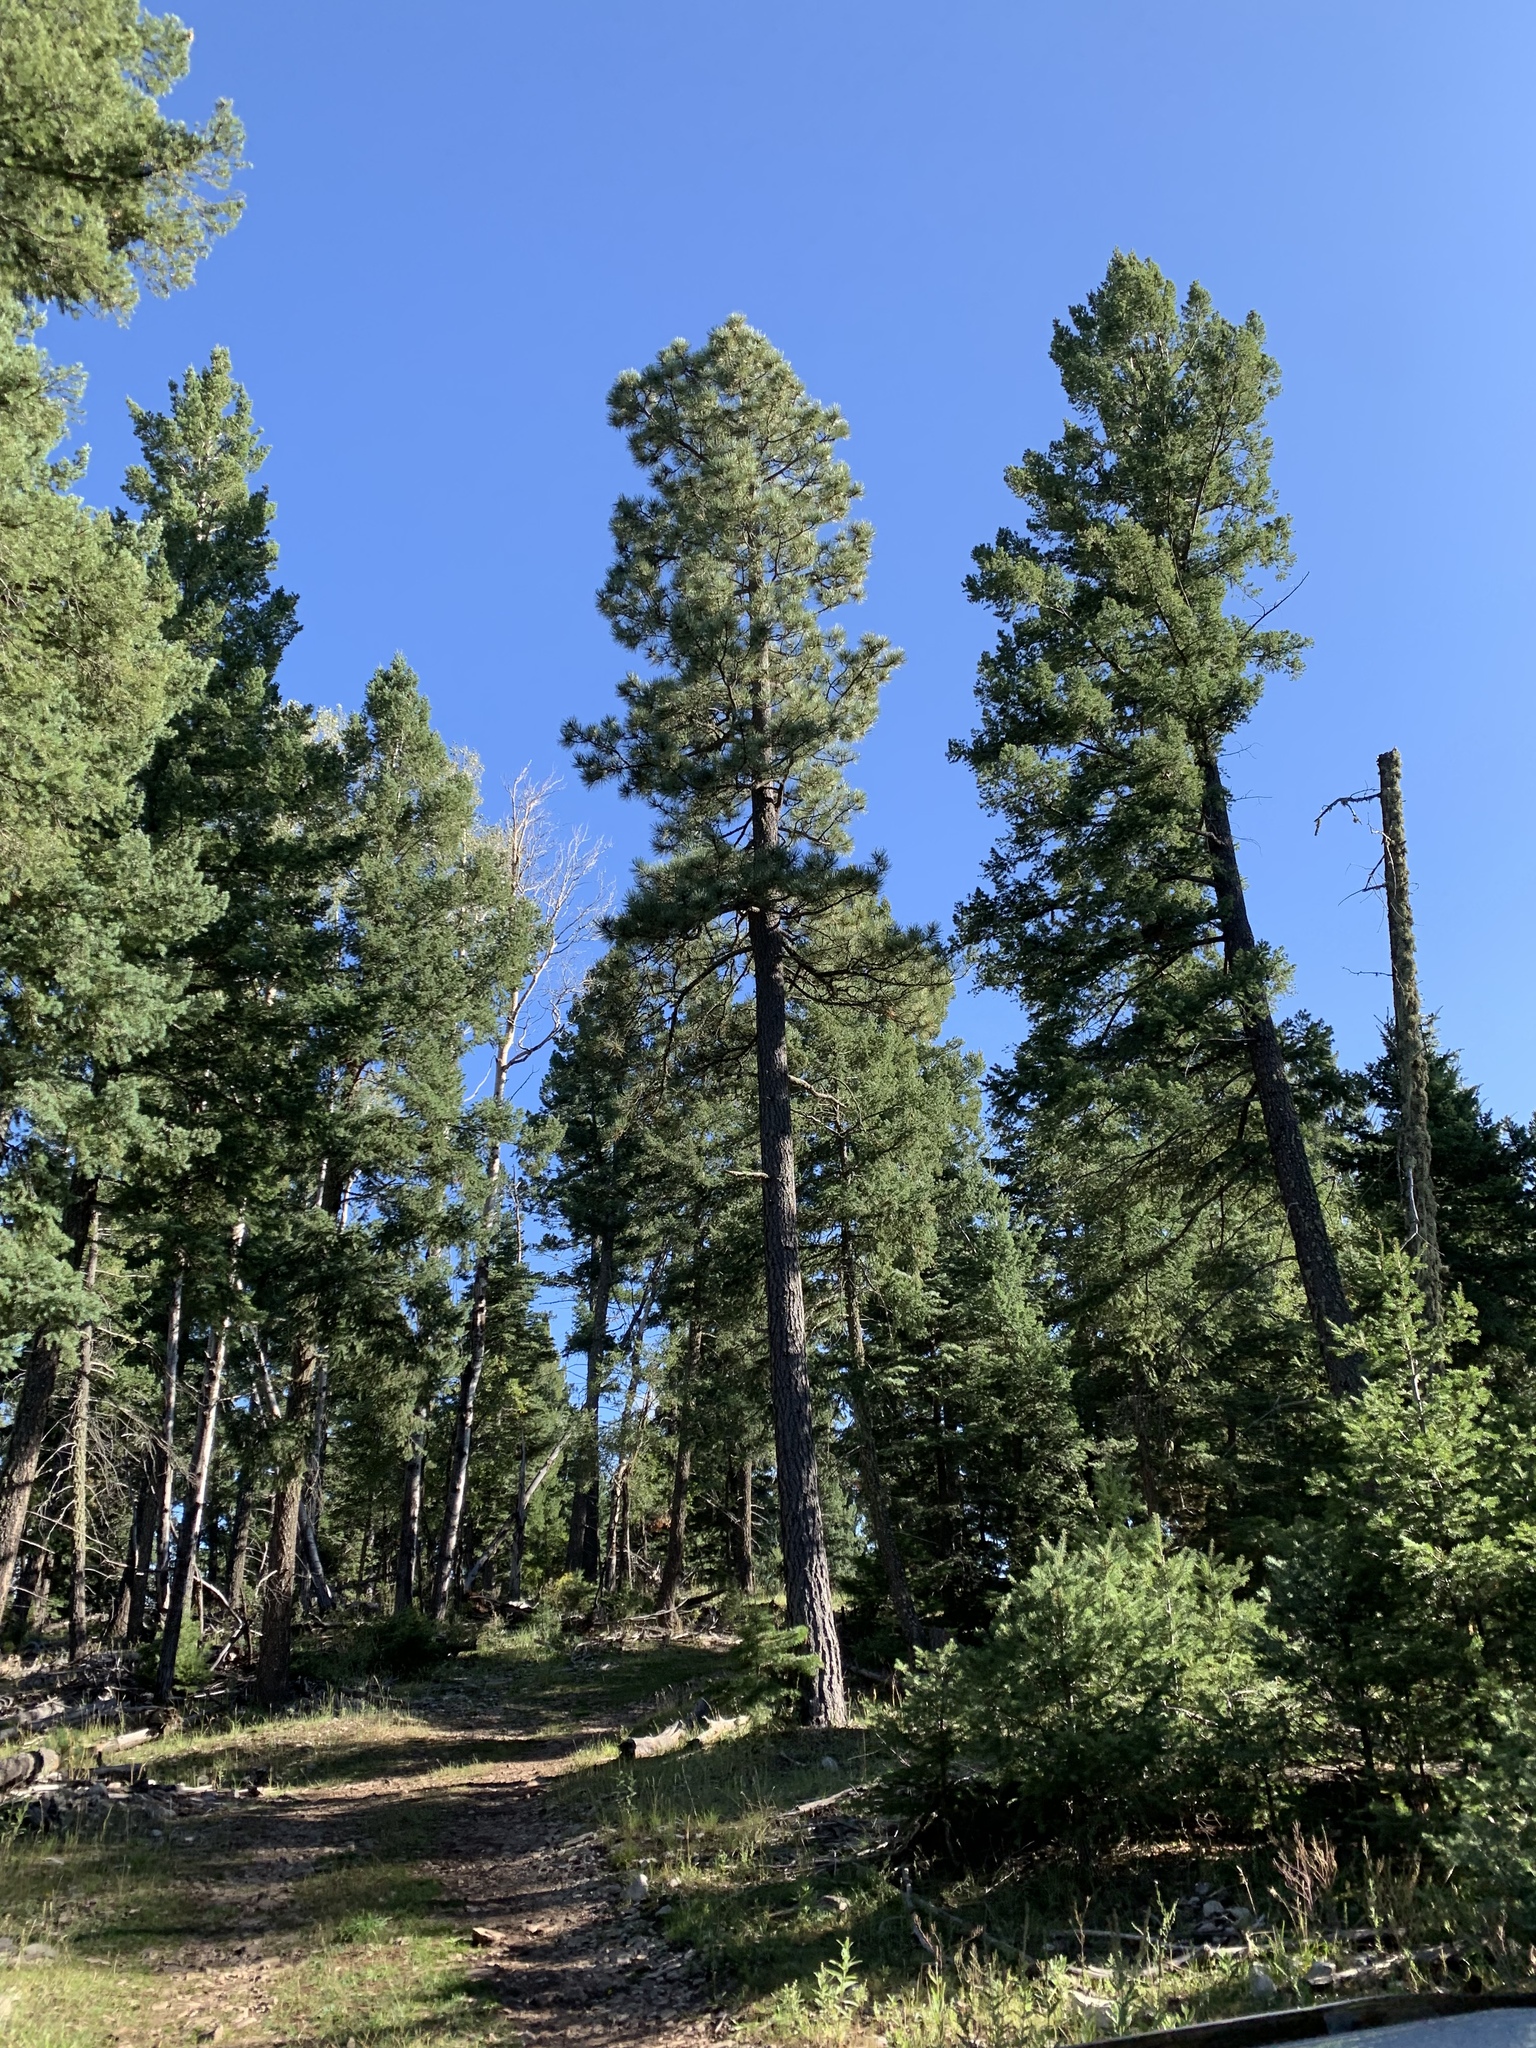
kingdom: Plantae
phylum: Tracheophyta
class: Pinopsida
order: Pinales
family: Pinaceae
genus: Pinus
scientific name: Pinus ponderosa
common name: Western yellow-pine
